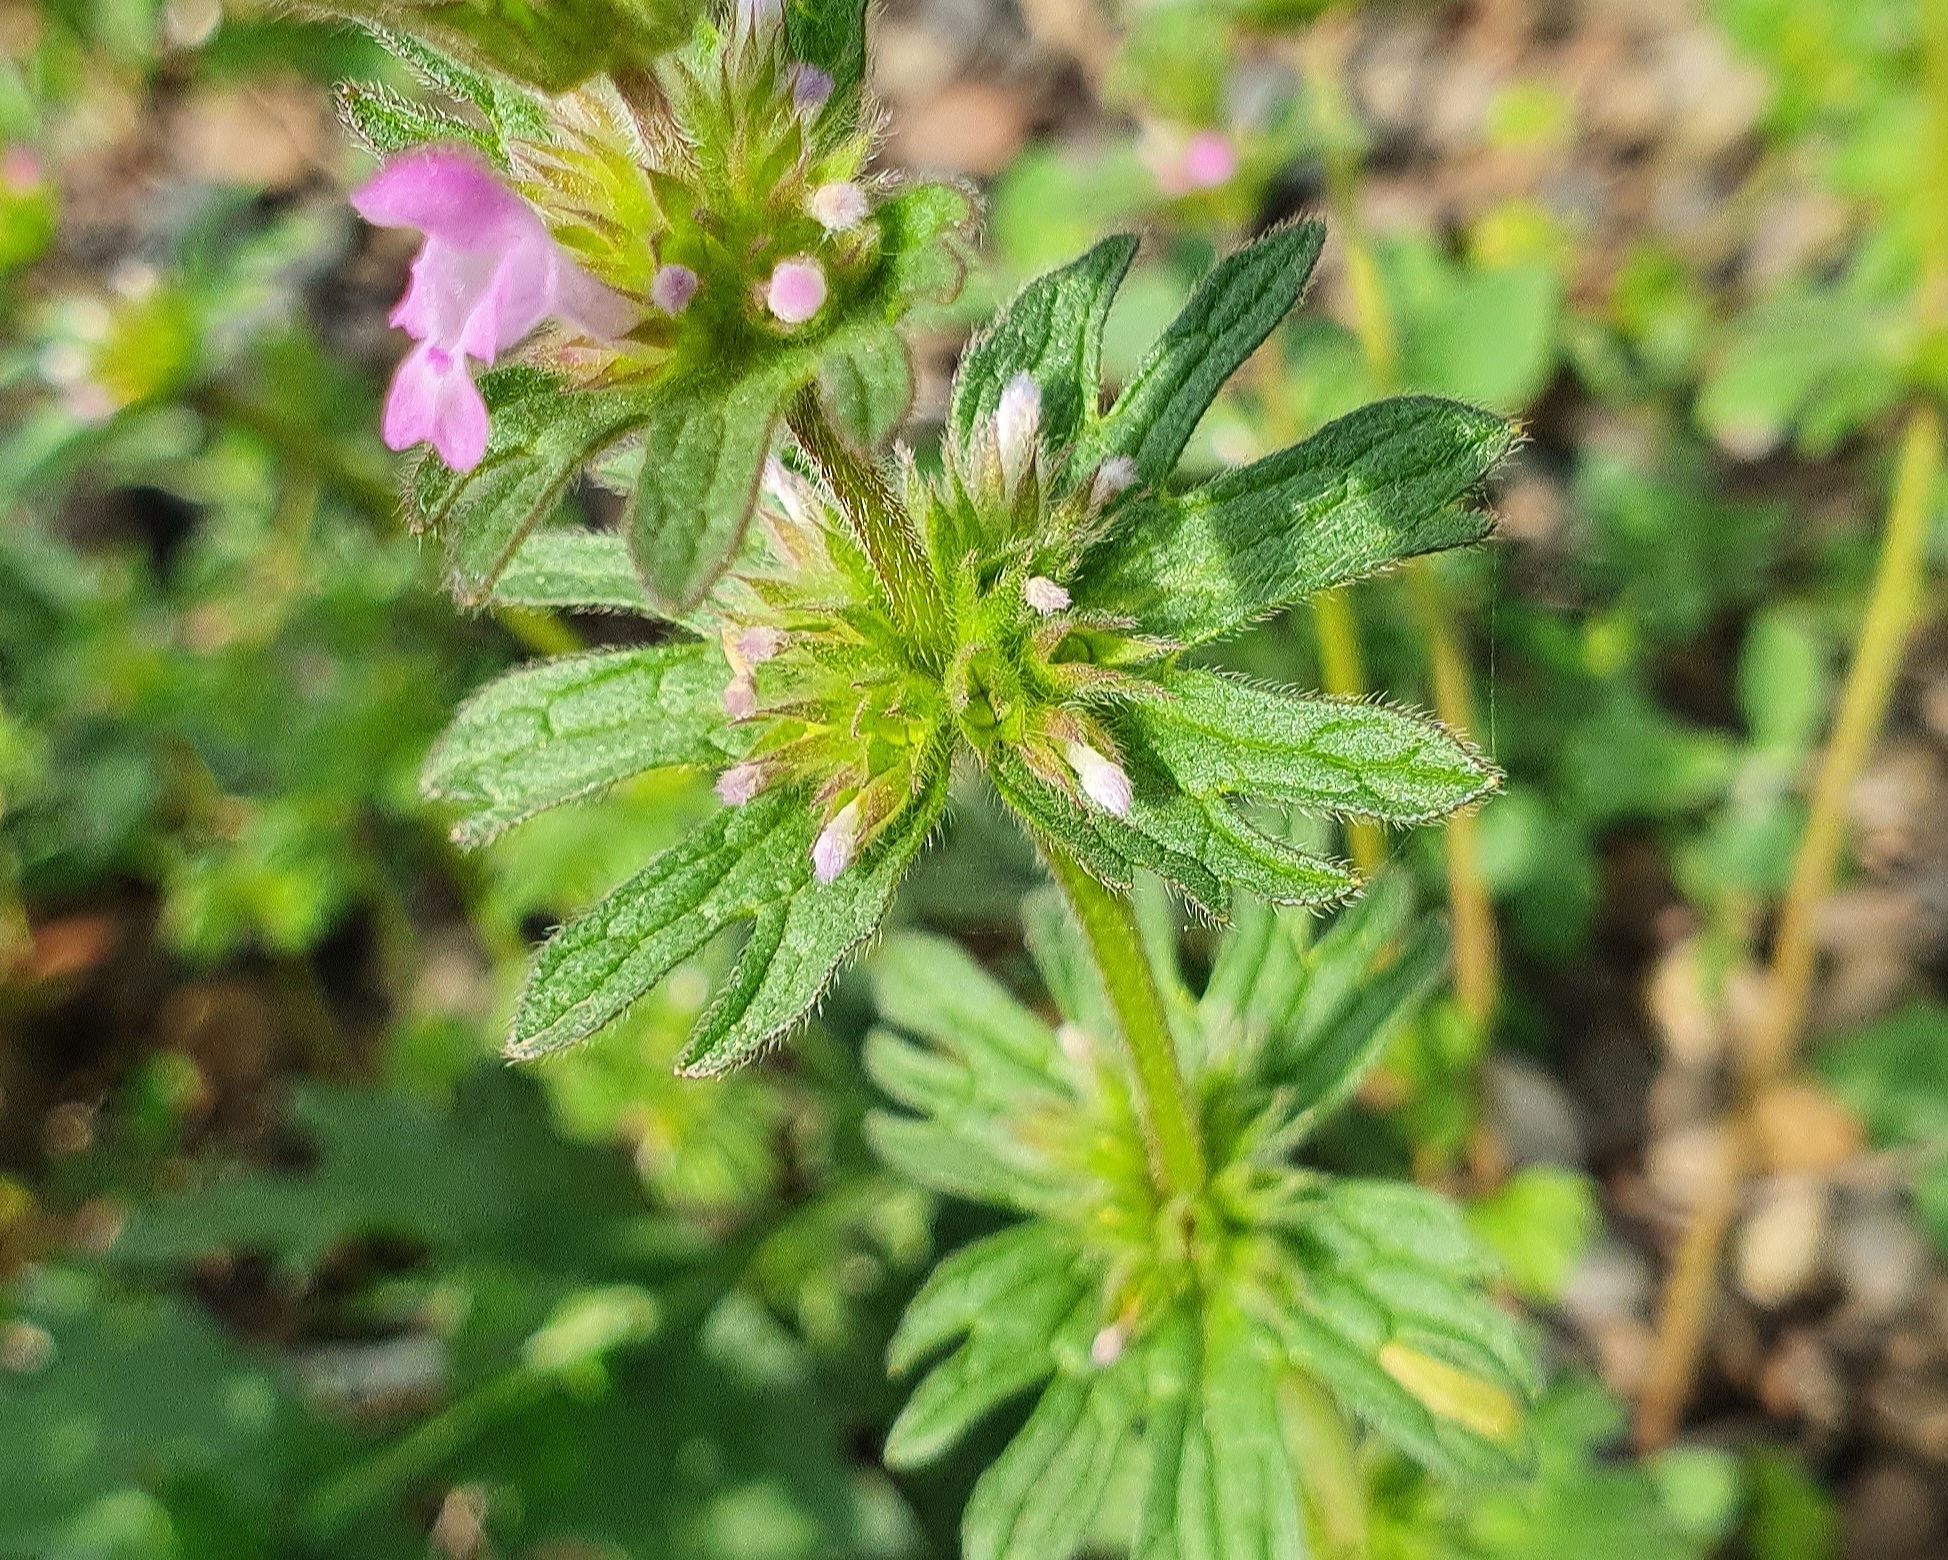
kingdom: Plantae
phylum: Tracheophyta
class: Magnoliopsida
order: Lamiales
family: Lamiaceae
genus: Lamium
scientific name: Lamium amplexicaule
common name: Henbit dead-nettle
